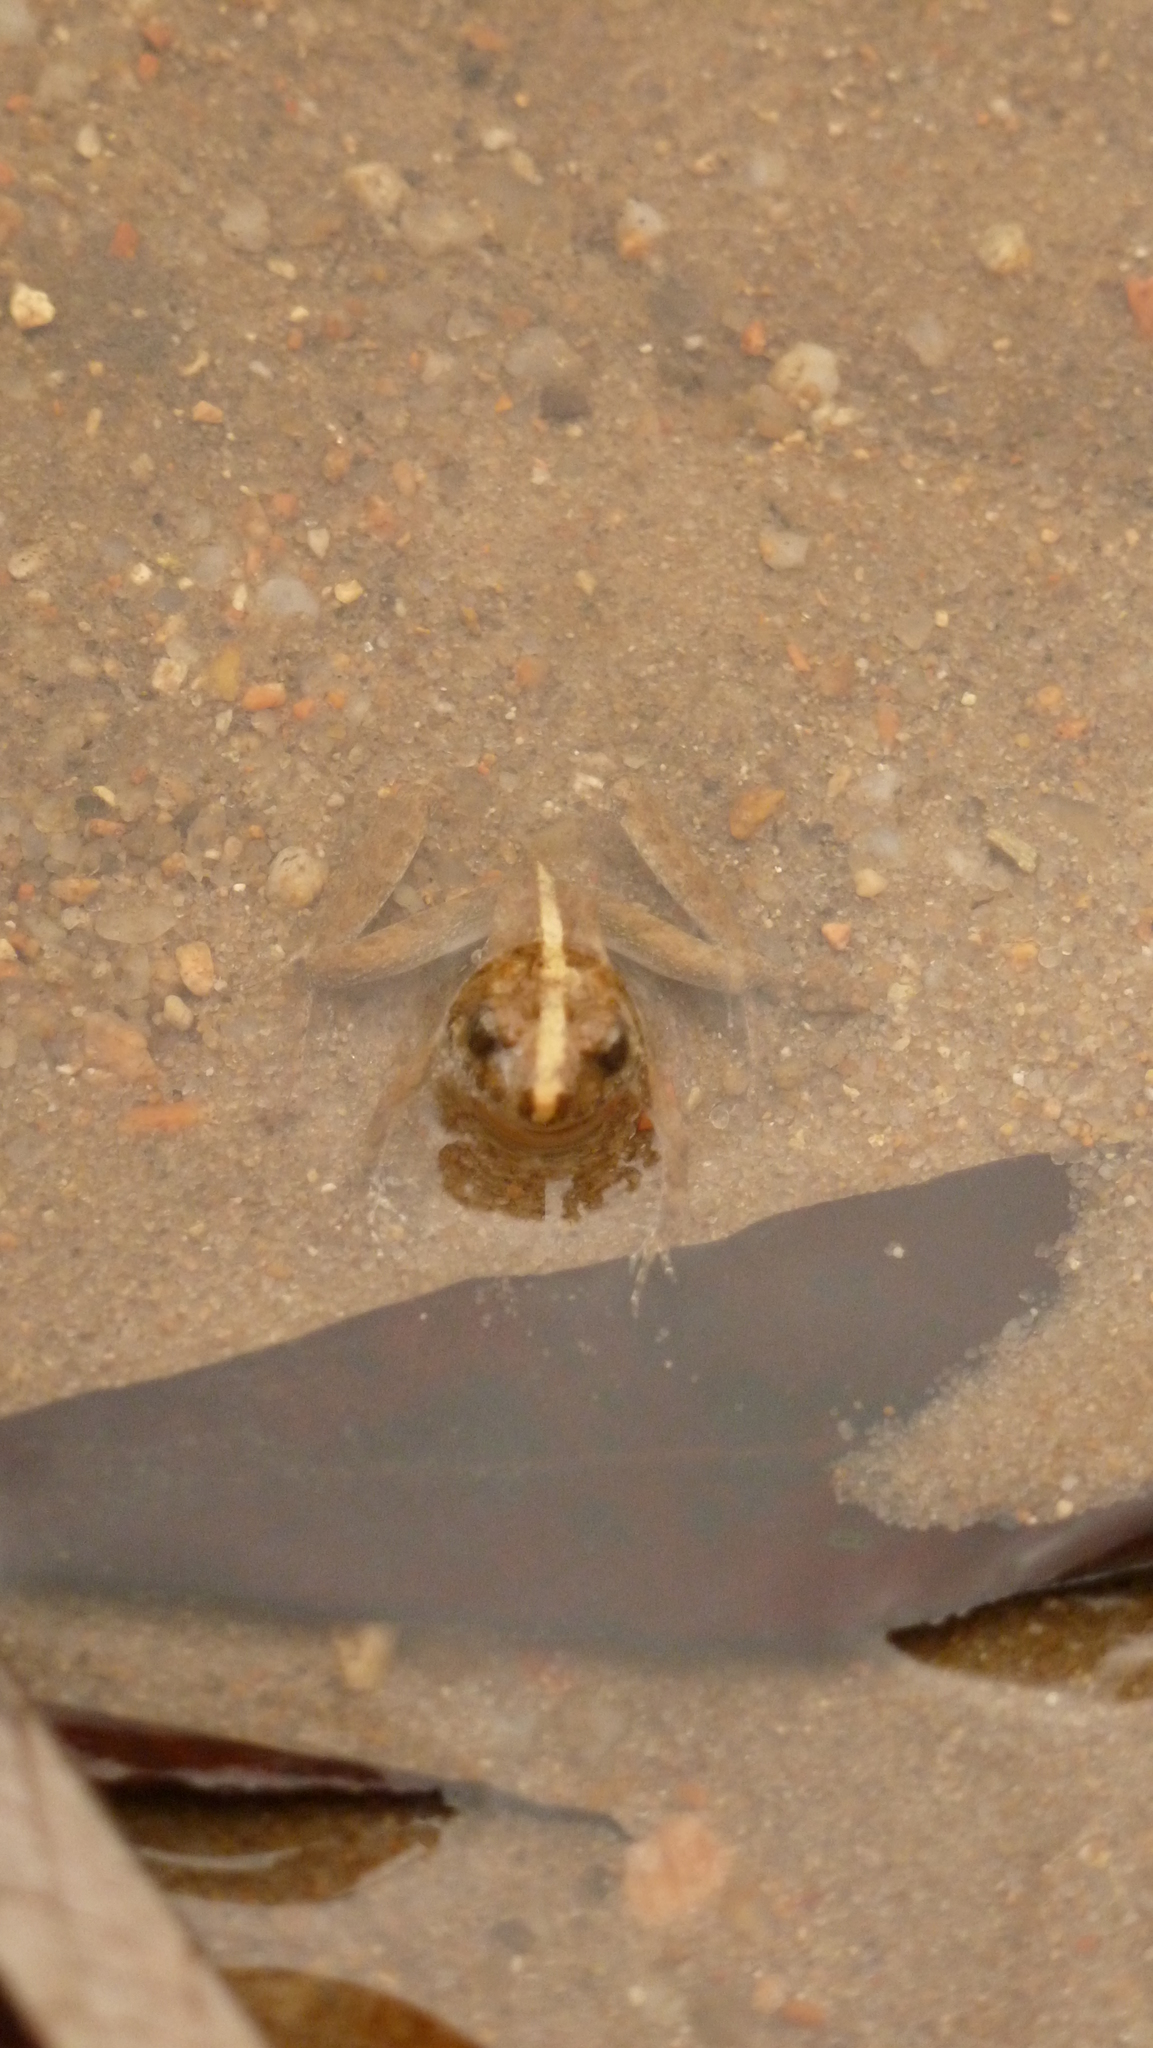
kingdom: Animalia
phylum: Chordata
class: Amphibia
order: Anura
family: Leptodactylidae
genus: Pseudopaludicola
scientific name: Pseudopaludicola falcipes
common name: Hensel’s swamp frog
